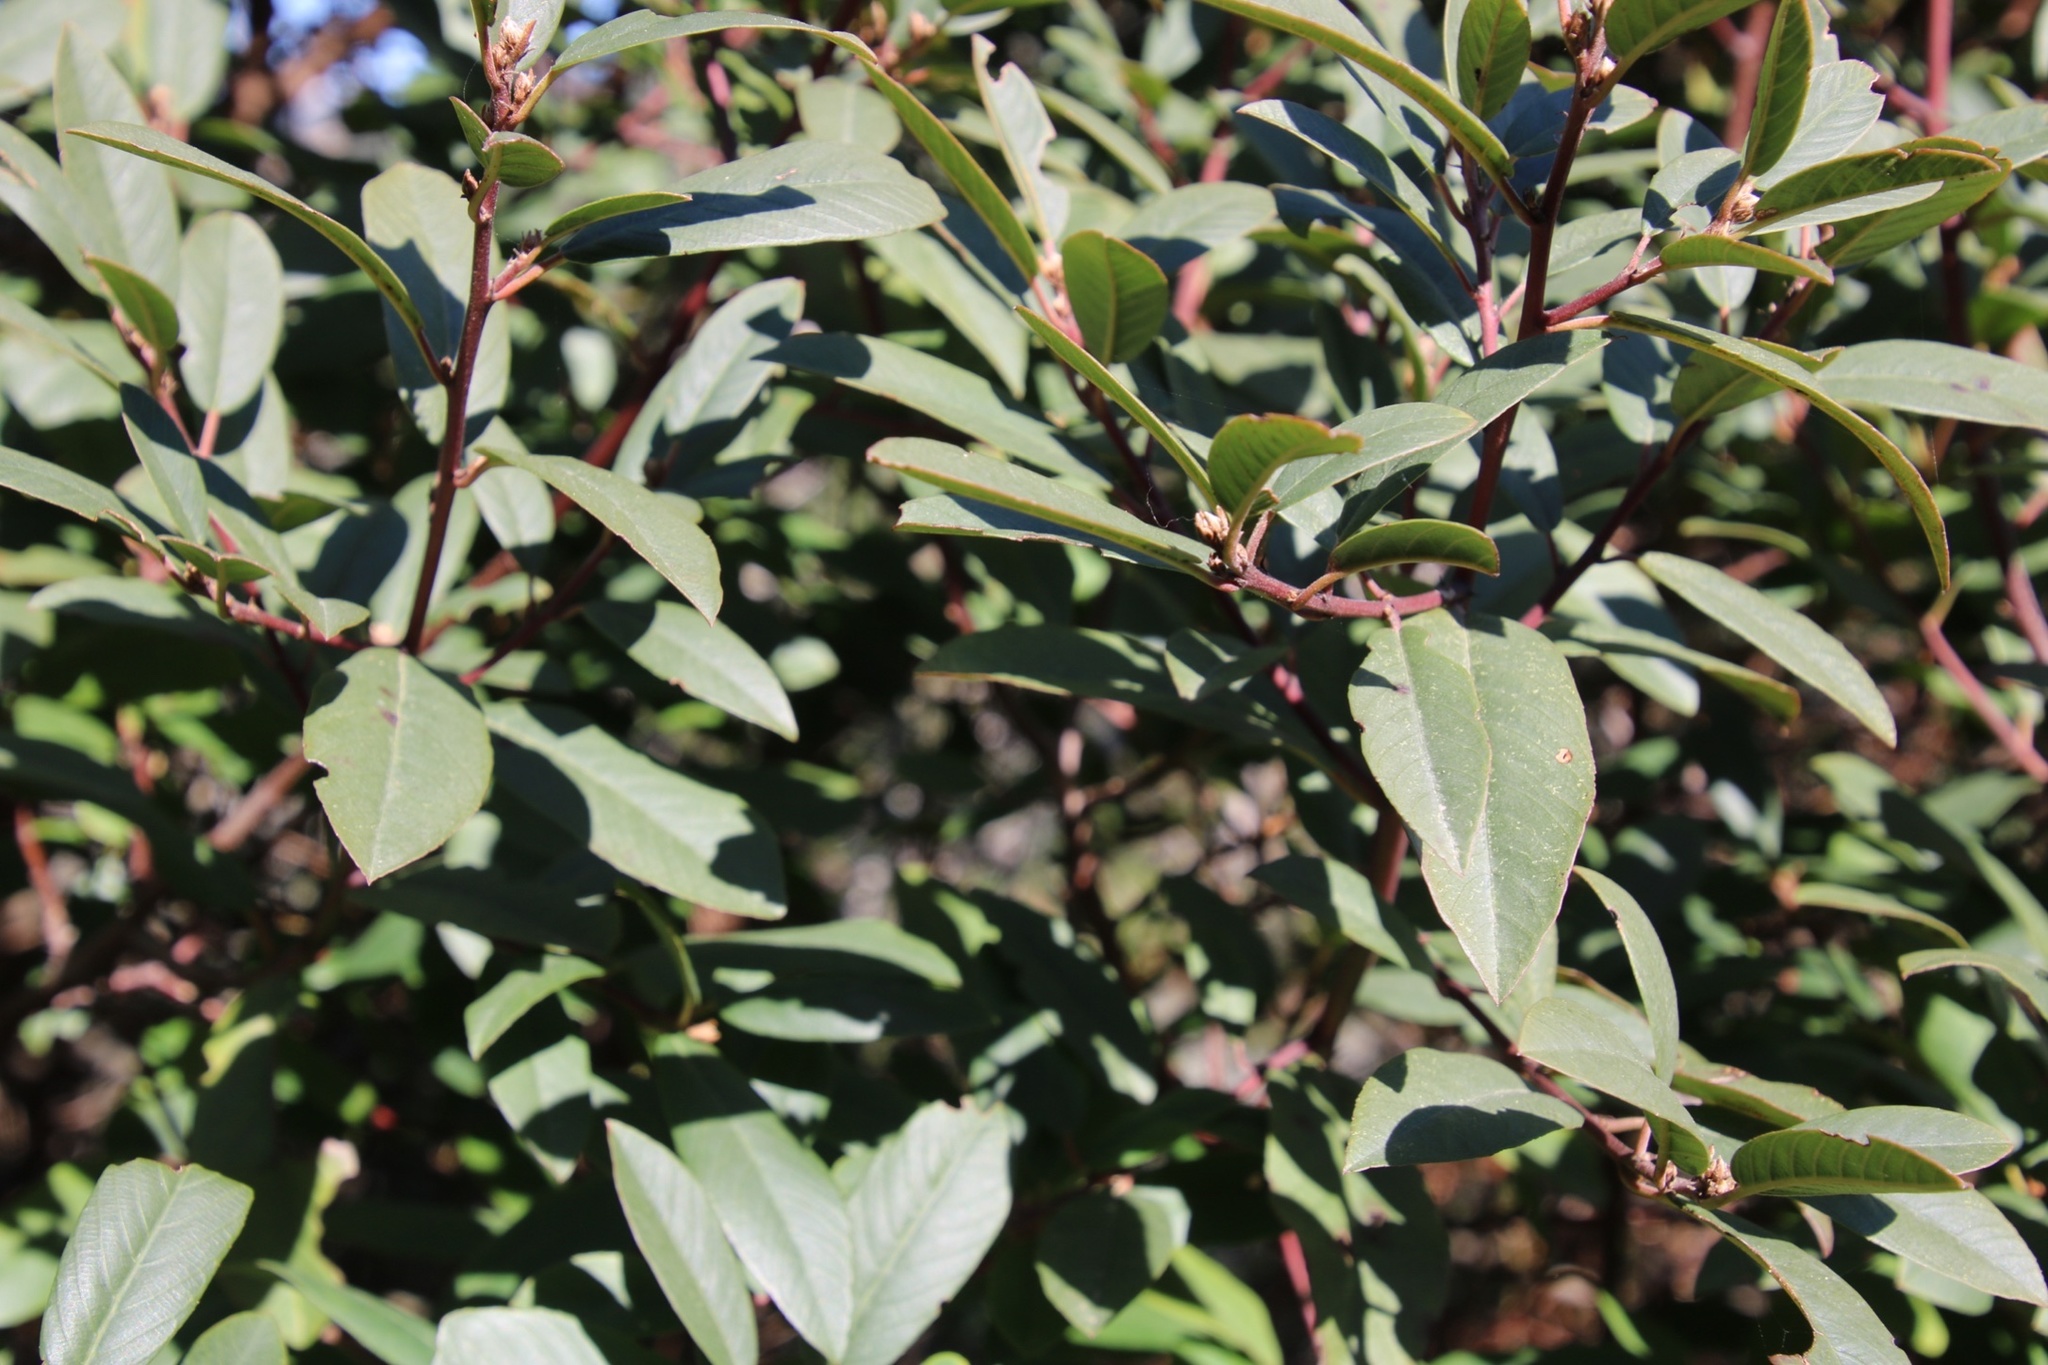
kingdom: Plantae
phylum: Tracheophyta
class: Magnoliopsida
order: Rosales
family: Rhamnaceae
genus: Frangula
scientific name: Frangula californica
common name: California buckthorn
